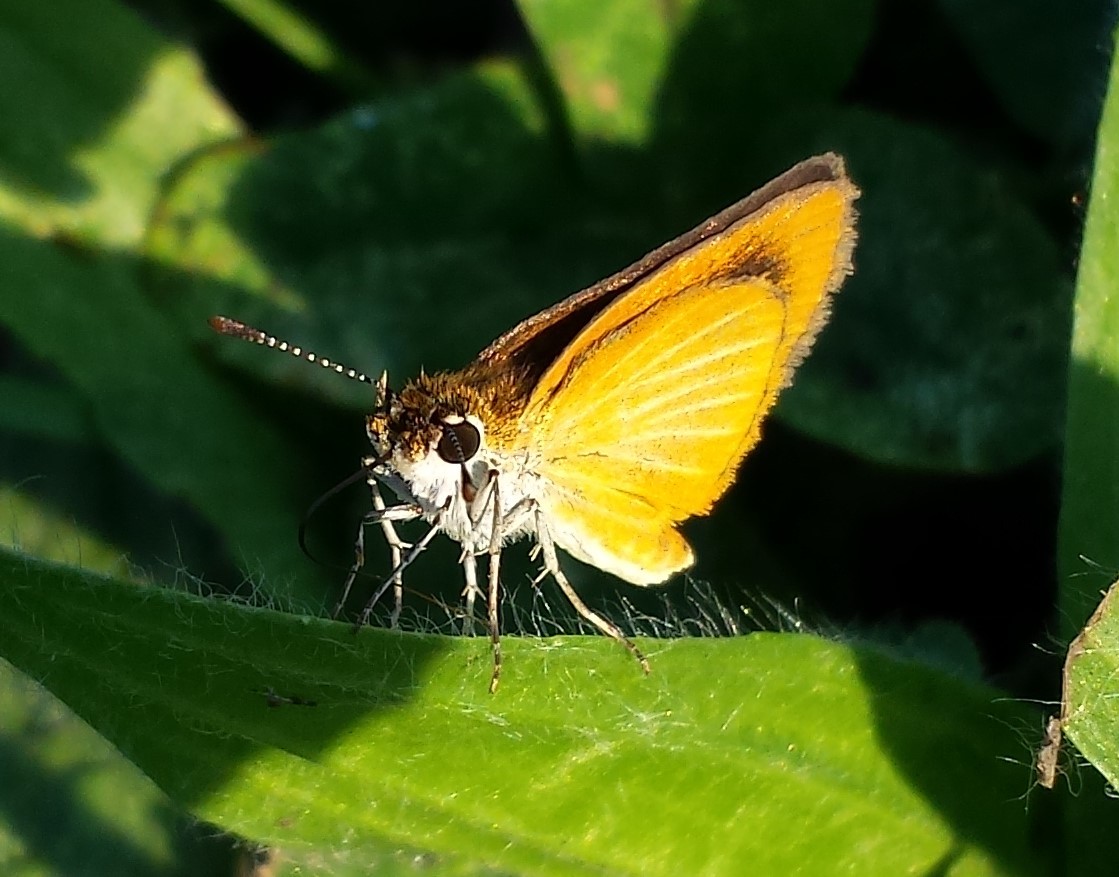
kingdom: Animalia
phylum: Arthropoda
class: Insecta
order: Lepidoptera
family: Hesperiidae
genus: Ancyloxypha
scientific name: Ancyloxypha numitor
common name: Least skipper
